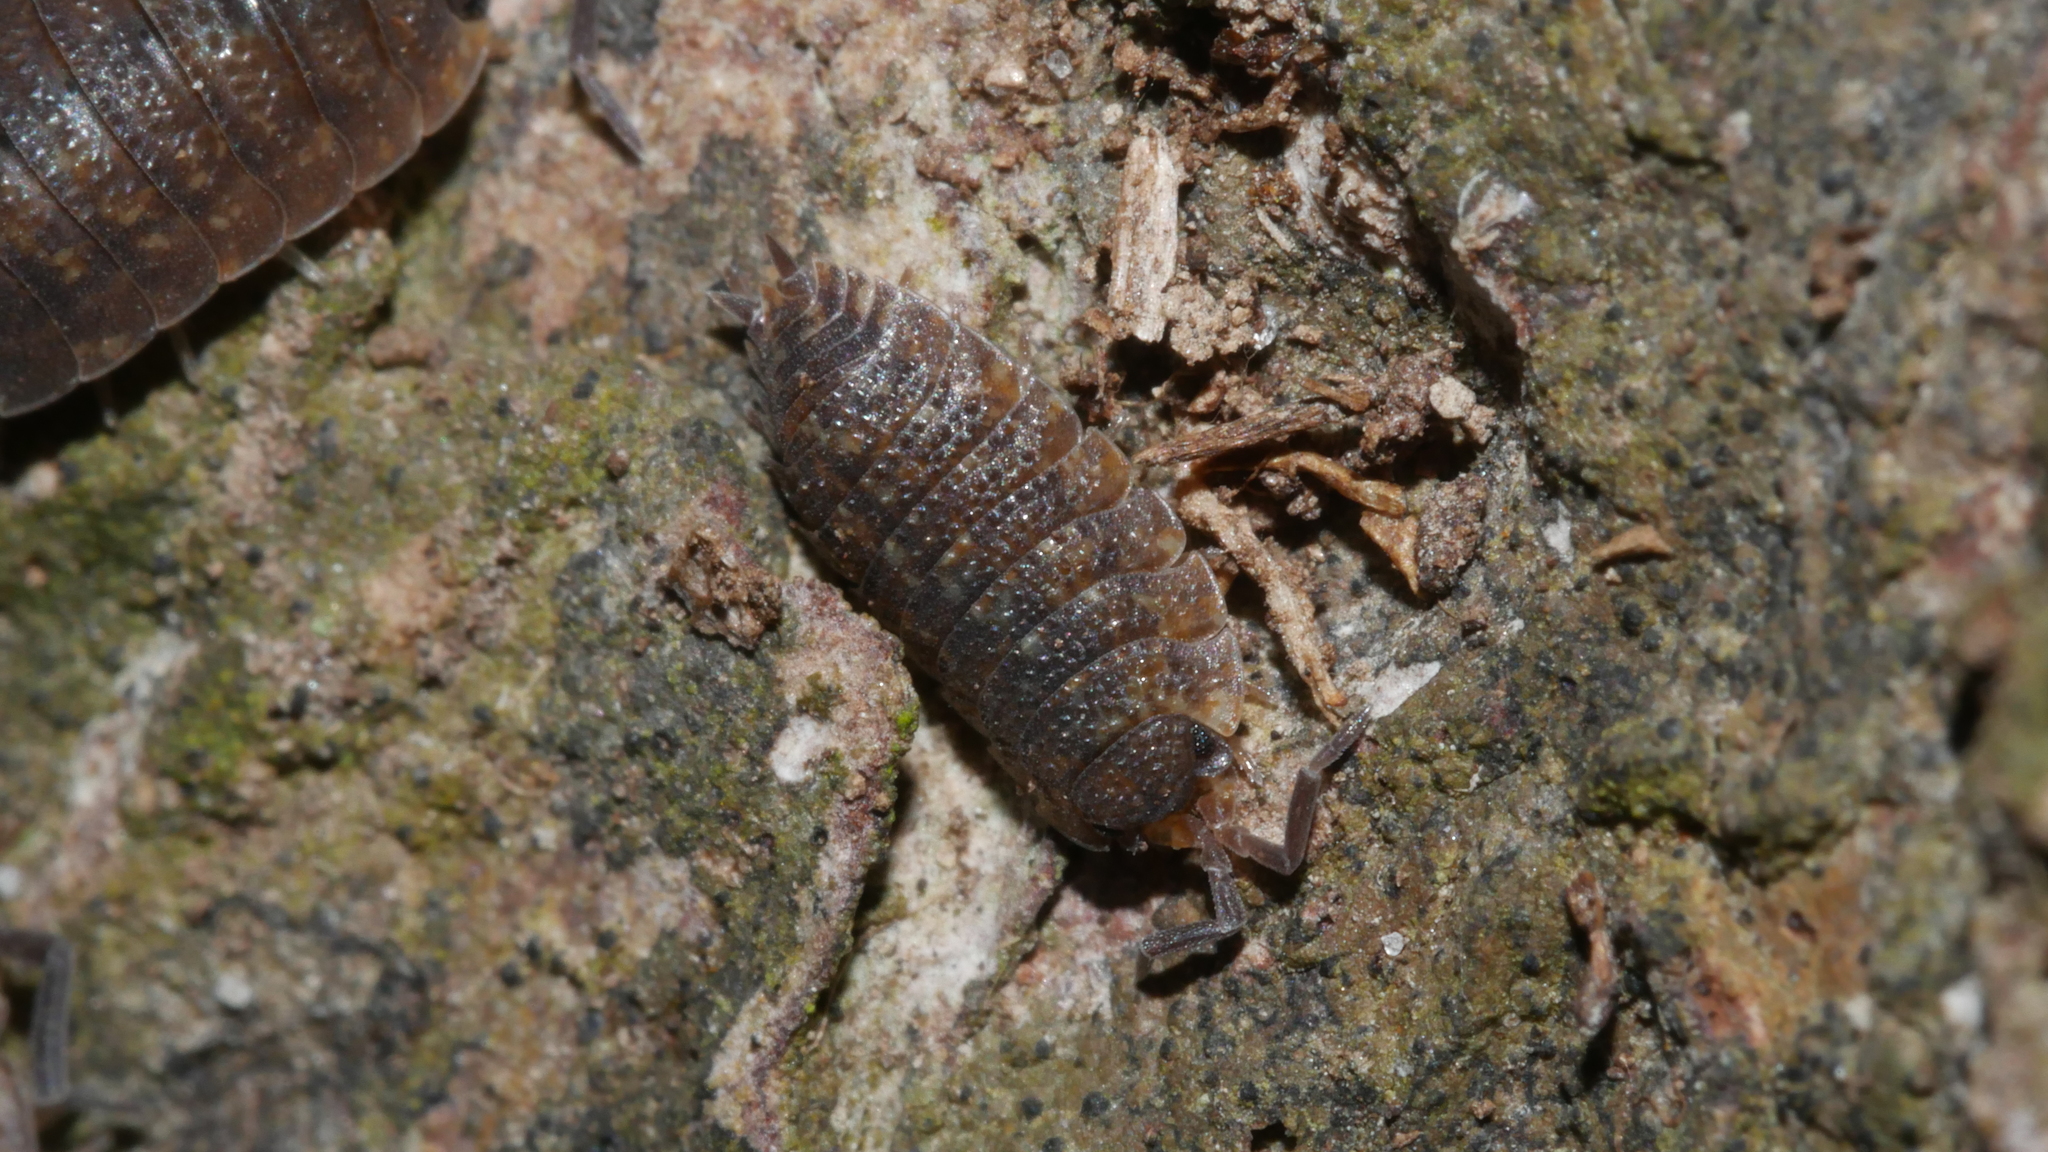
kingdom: Animalia
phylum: Arthropoda
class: Malacostraca
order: Isopoda
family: Porcellionidae
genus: Porcellio
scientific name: Porcellio scaber
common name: Common rough woodlouse
